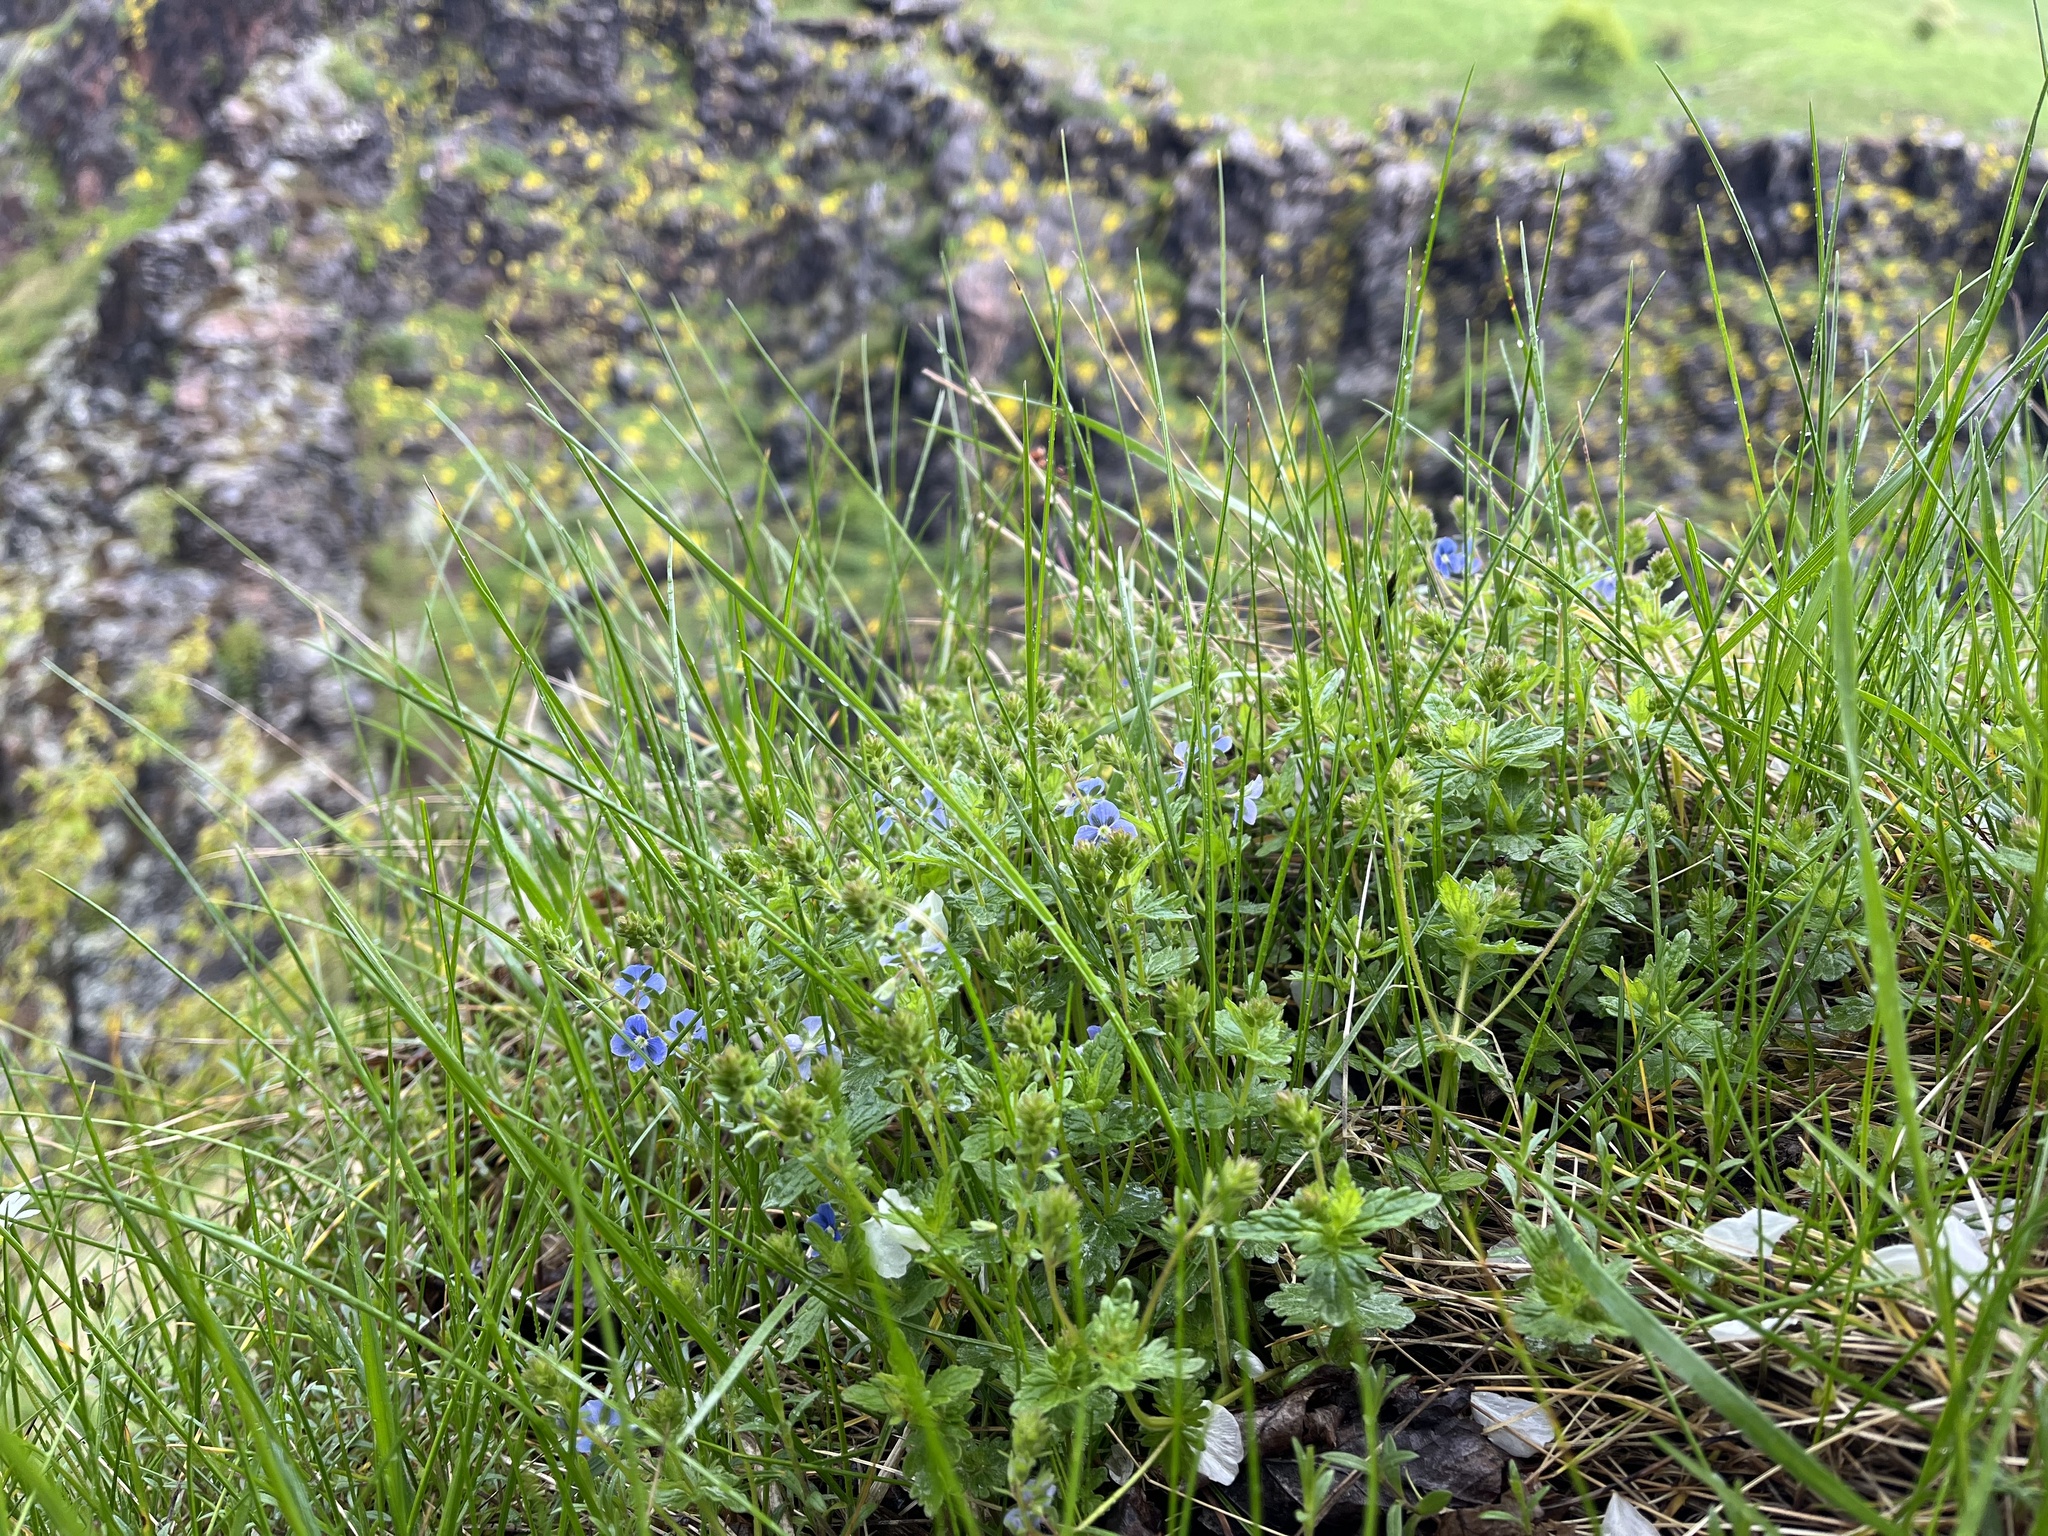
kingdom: Plantae
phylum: Tracheophyta
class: Magnoliopsida
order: Lamiales
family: Plantaginaceae
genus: Veronica
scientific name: Veronica chamaedrys
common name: Germander speedwell
